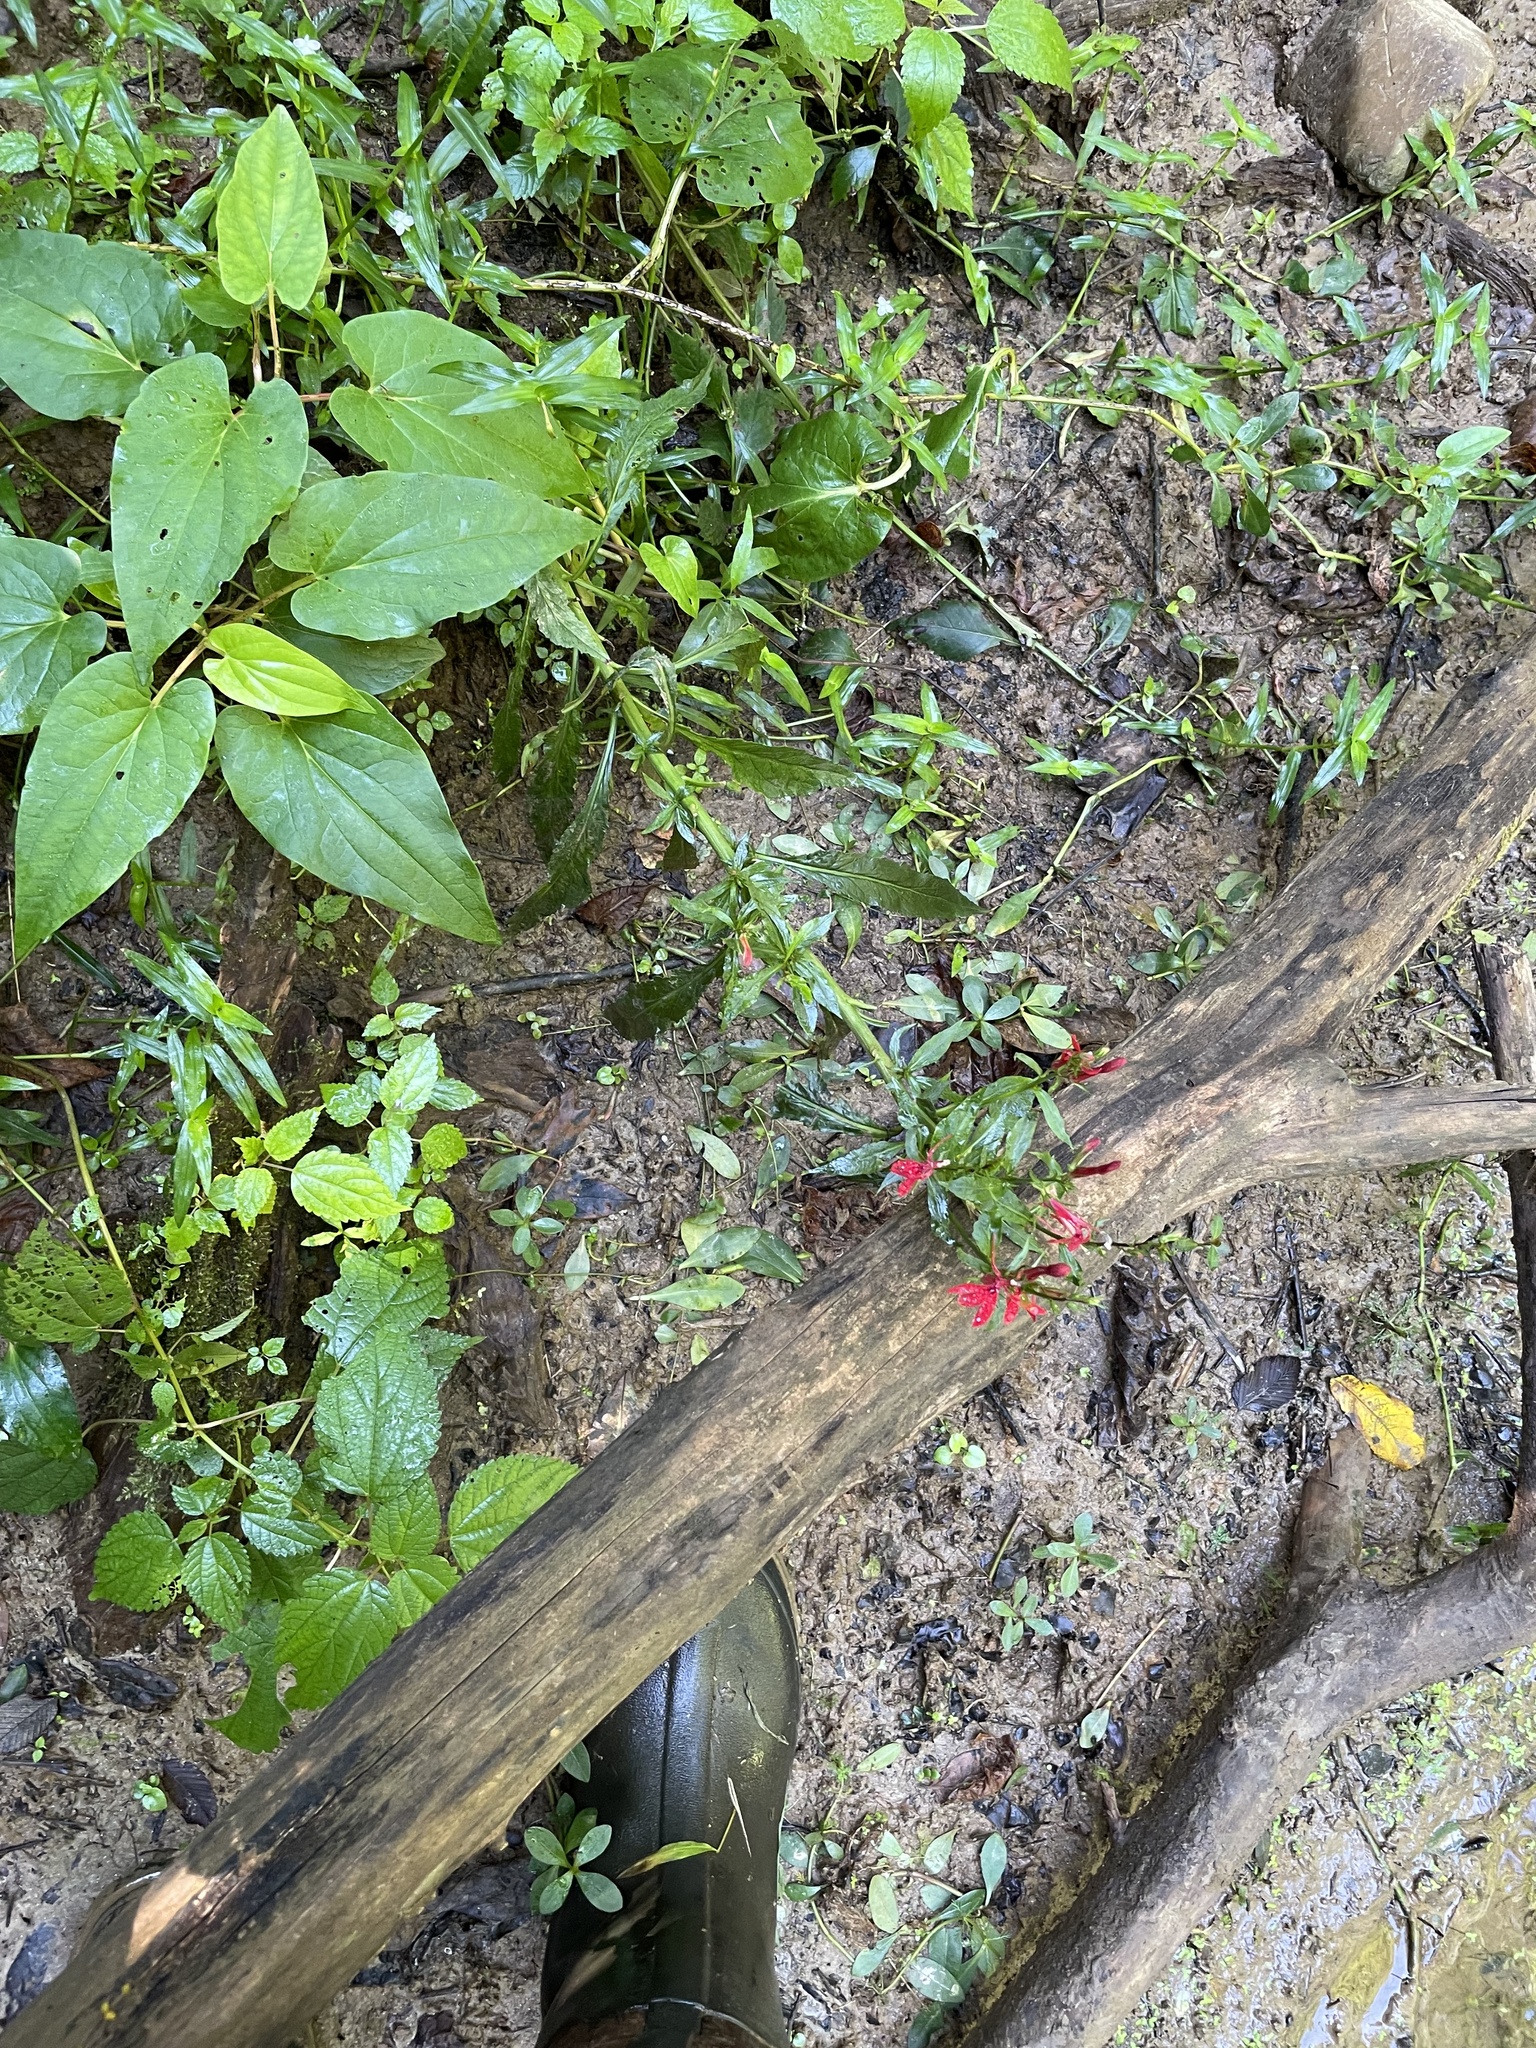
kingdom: Plantae
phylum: Tracheophyta
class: Magnoliopsida
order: Asterales
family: Campanulaceae
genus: Lobelia
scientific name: Lobelia cardinalis
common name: Cardinal flower
